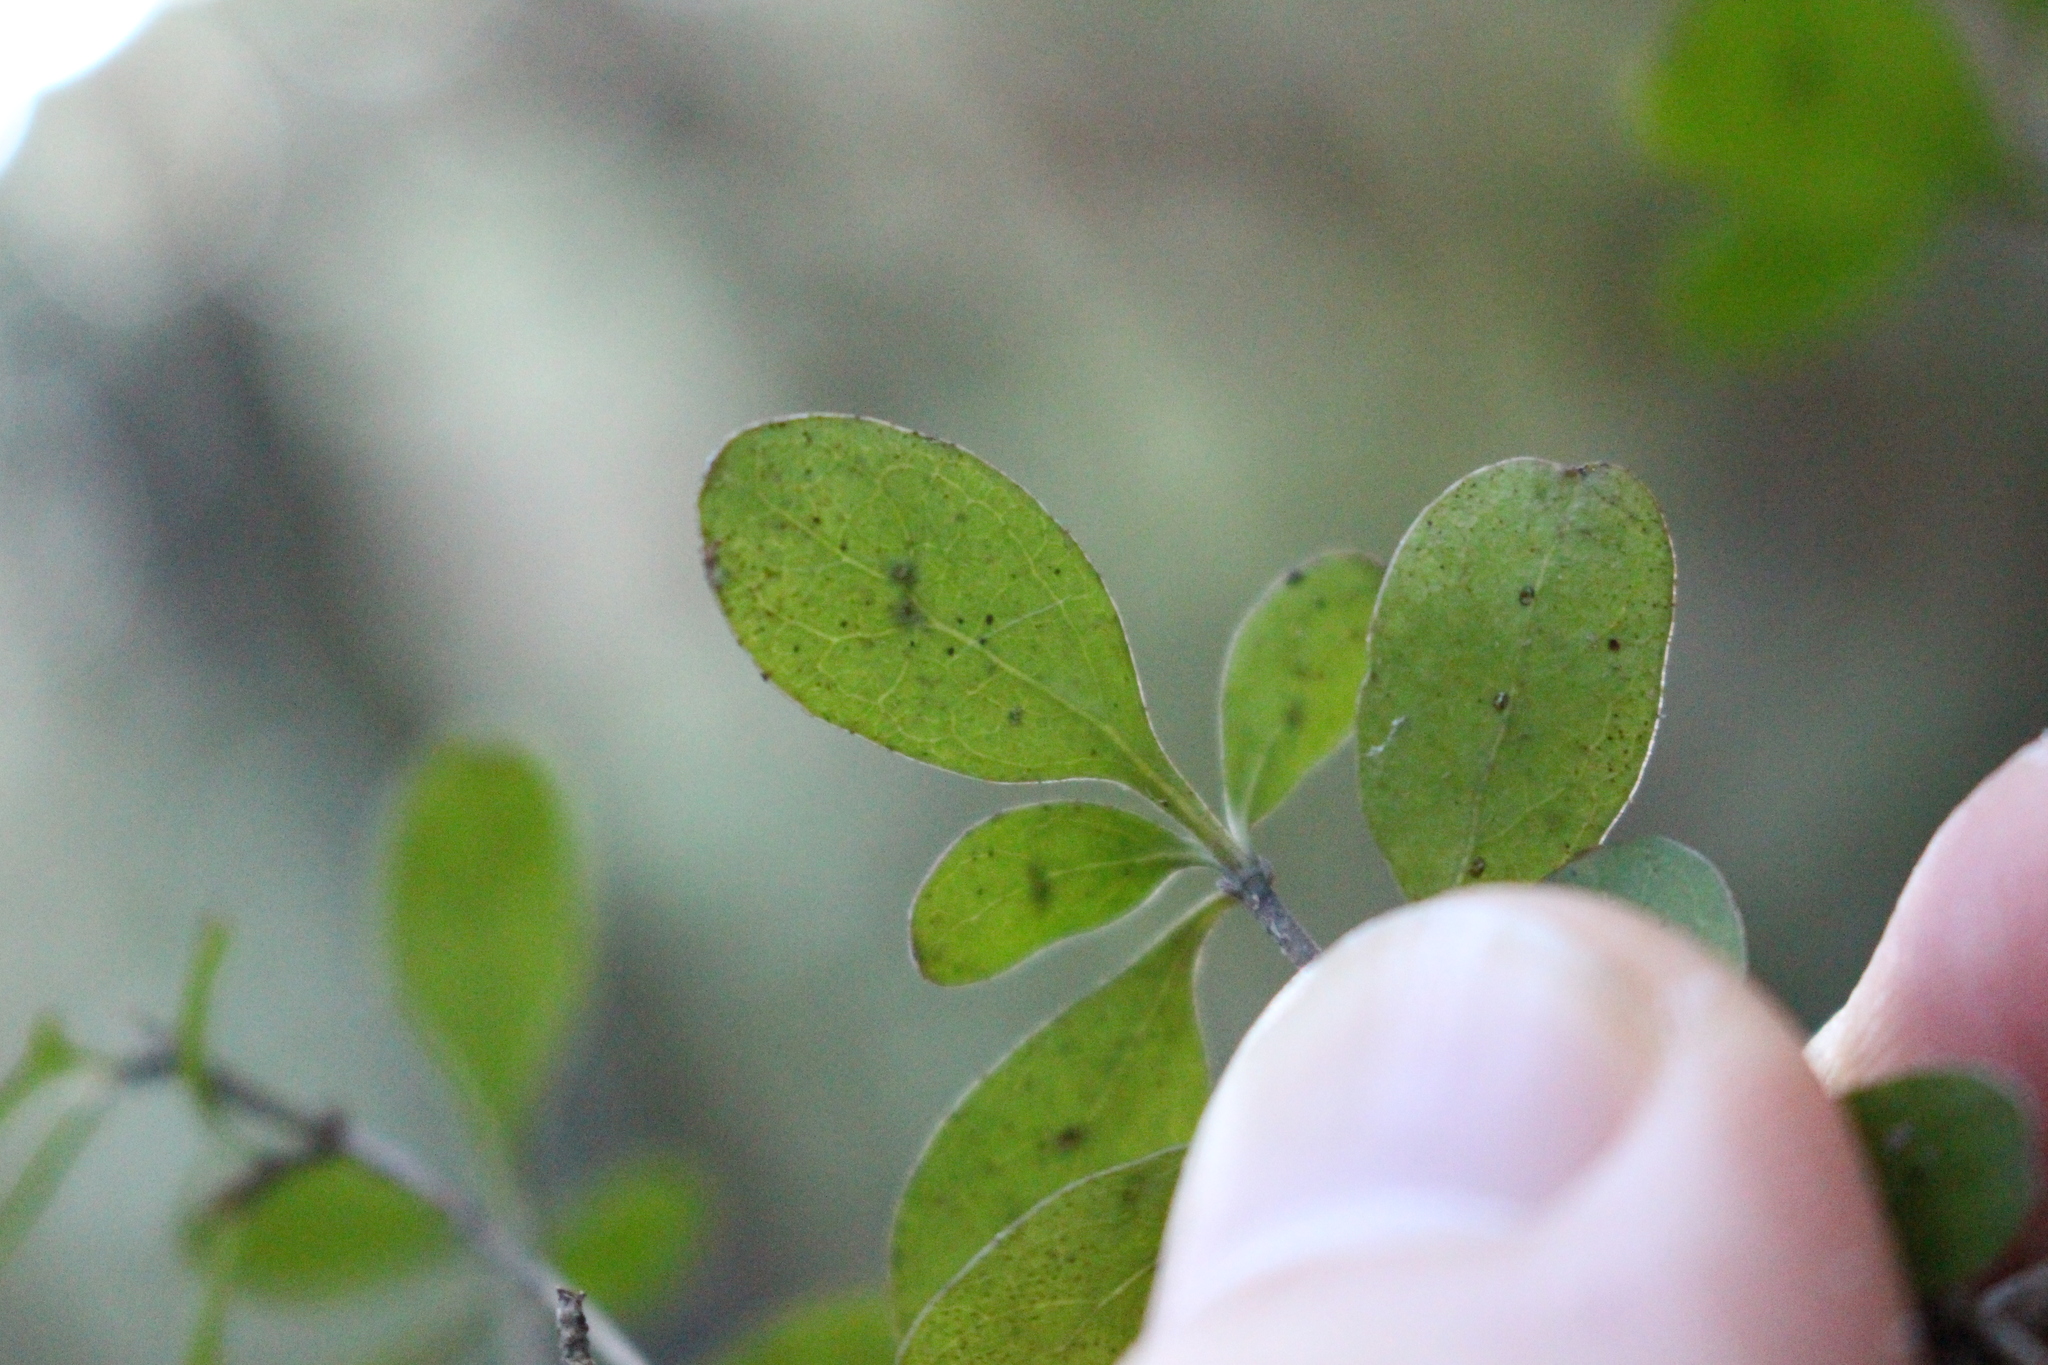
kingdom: Plantae
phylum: Tracheophyta
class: Magnoliopsida
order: Gentianales
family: Rubiaceae
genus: Coprosma
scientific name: Coprosma rigida
